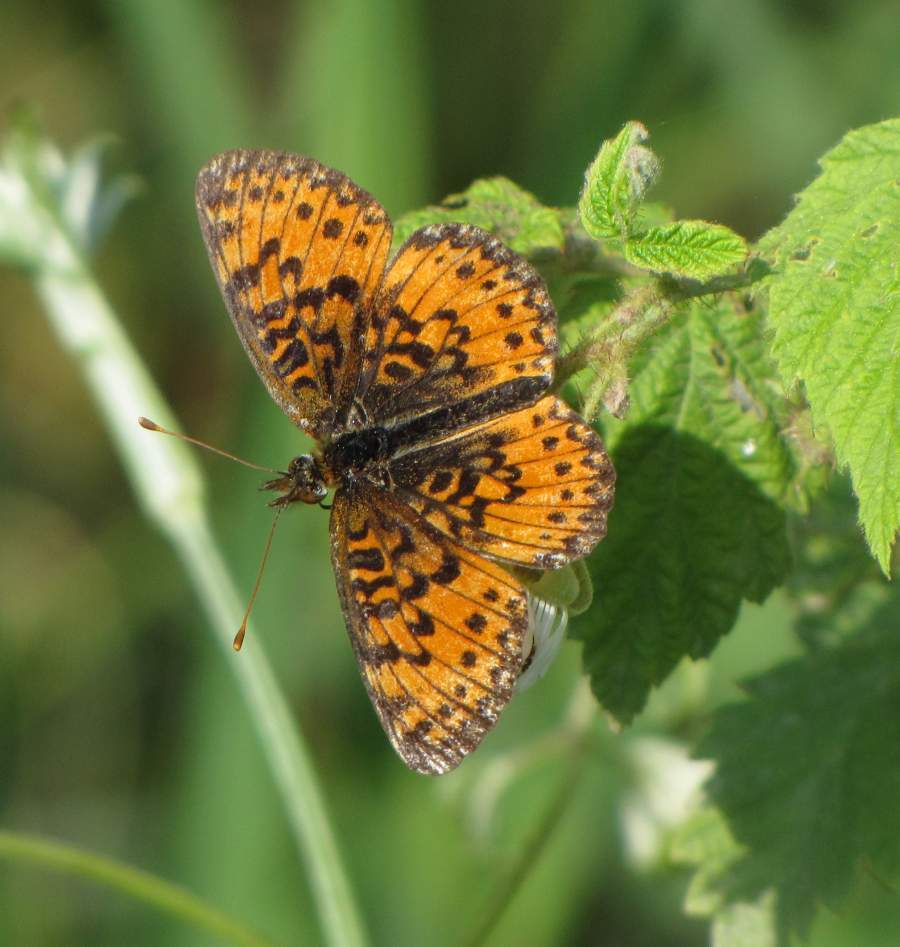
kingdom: Animalia
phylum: Arthropoda
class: Insecta
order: Lepidoptera
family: Nymphalidae
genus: Boloria
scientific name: Boloria
